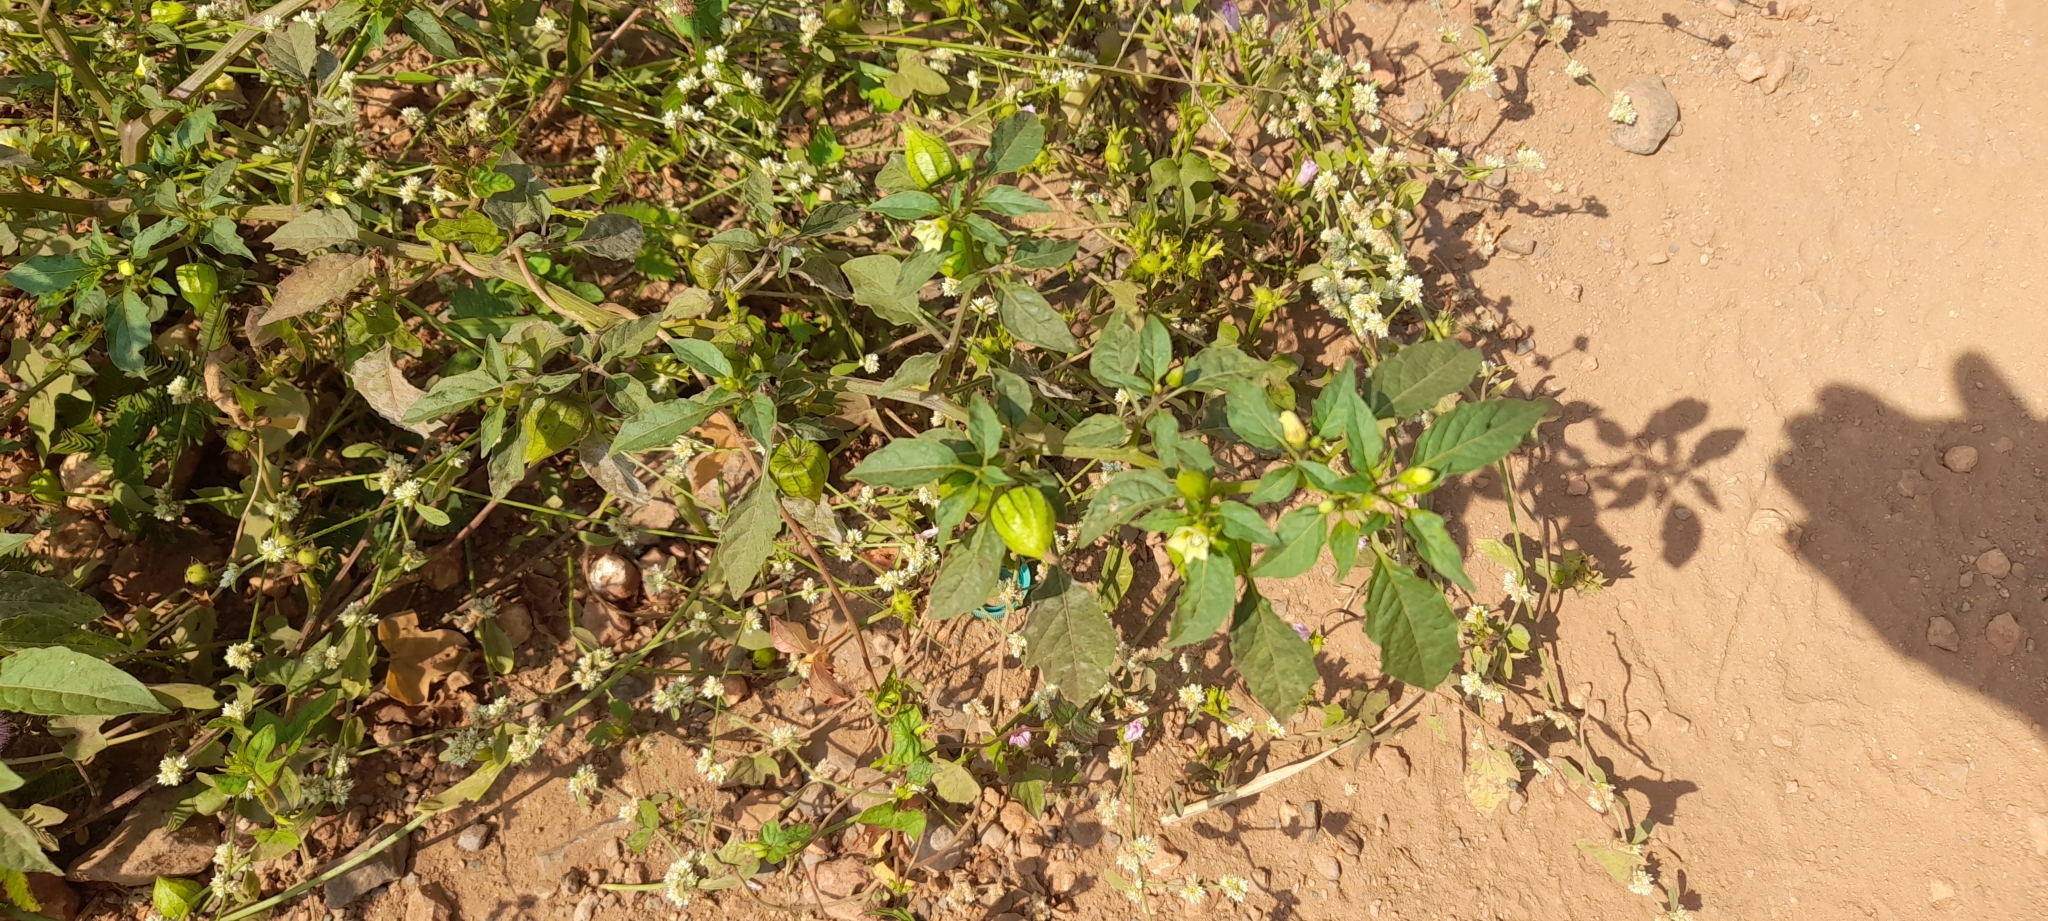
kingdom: Plantae
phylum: Tracheophyta
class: Magnoliopsida
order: Solanales
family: Solanaceae
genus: Physalis
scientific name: Physalis angulata
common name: Angular winter-cherry
